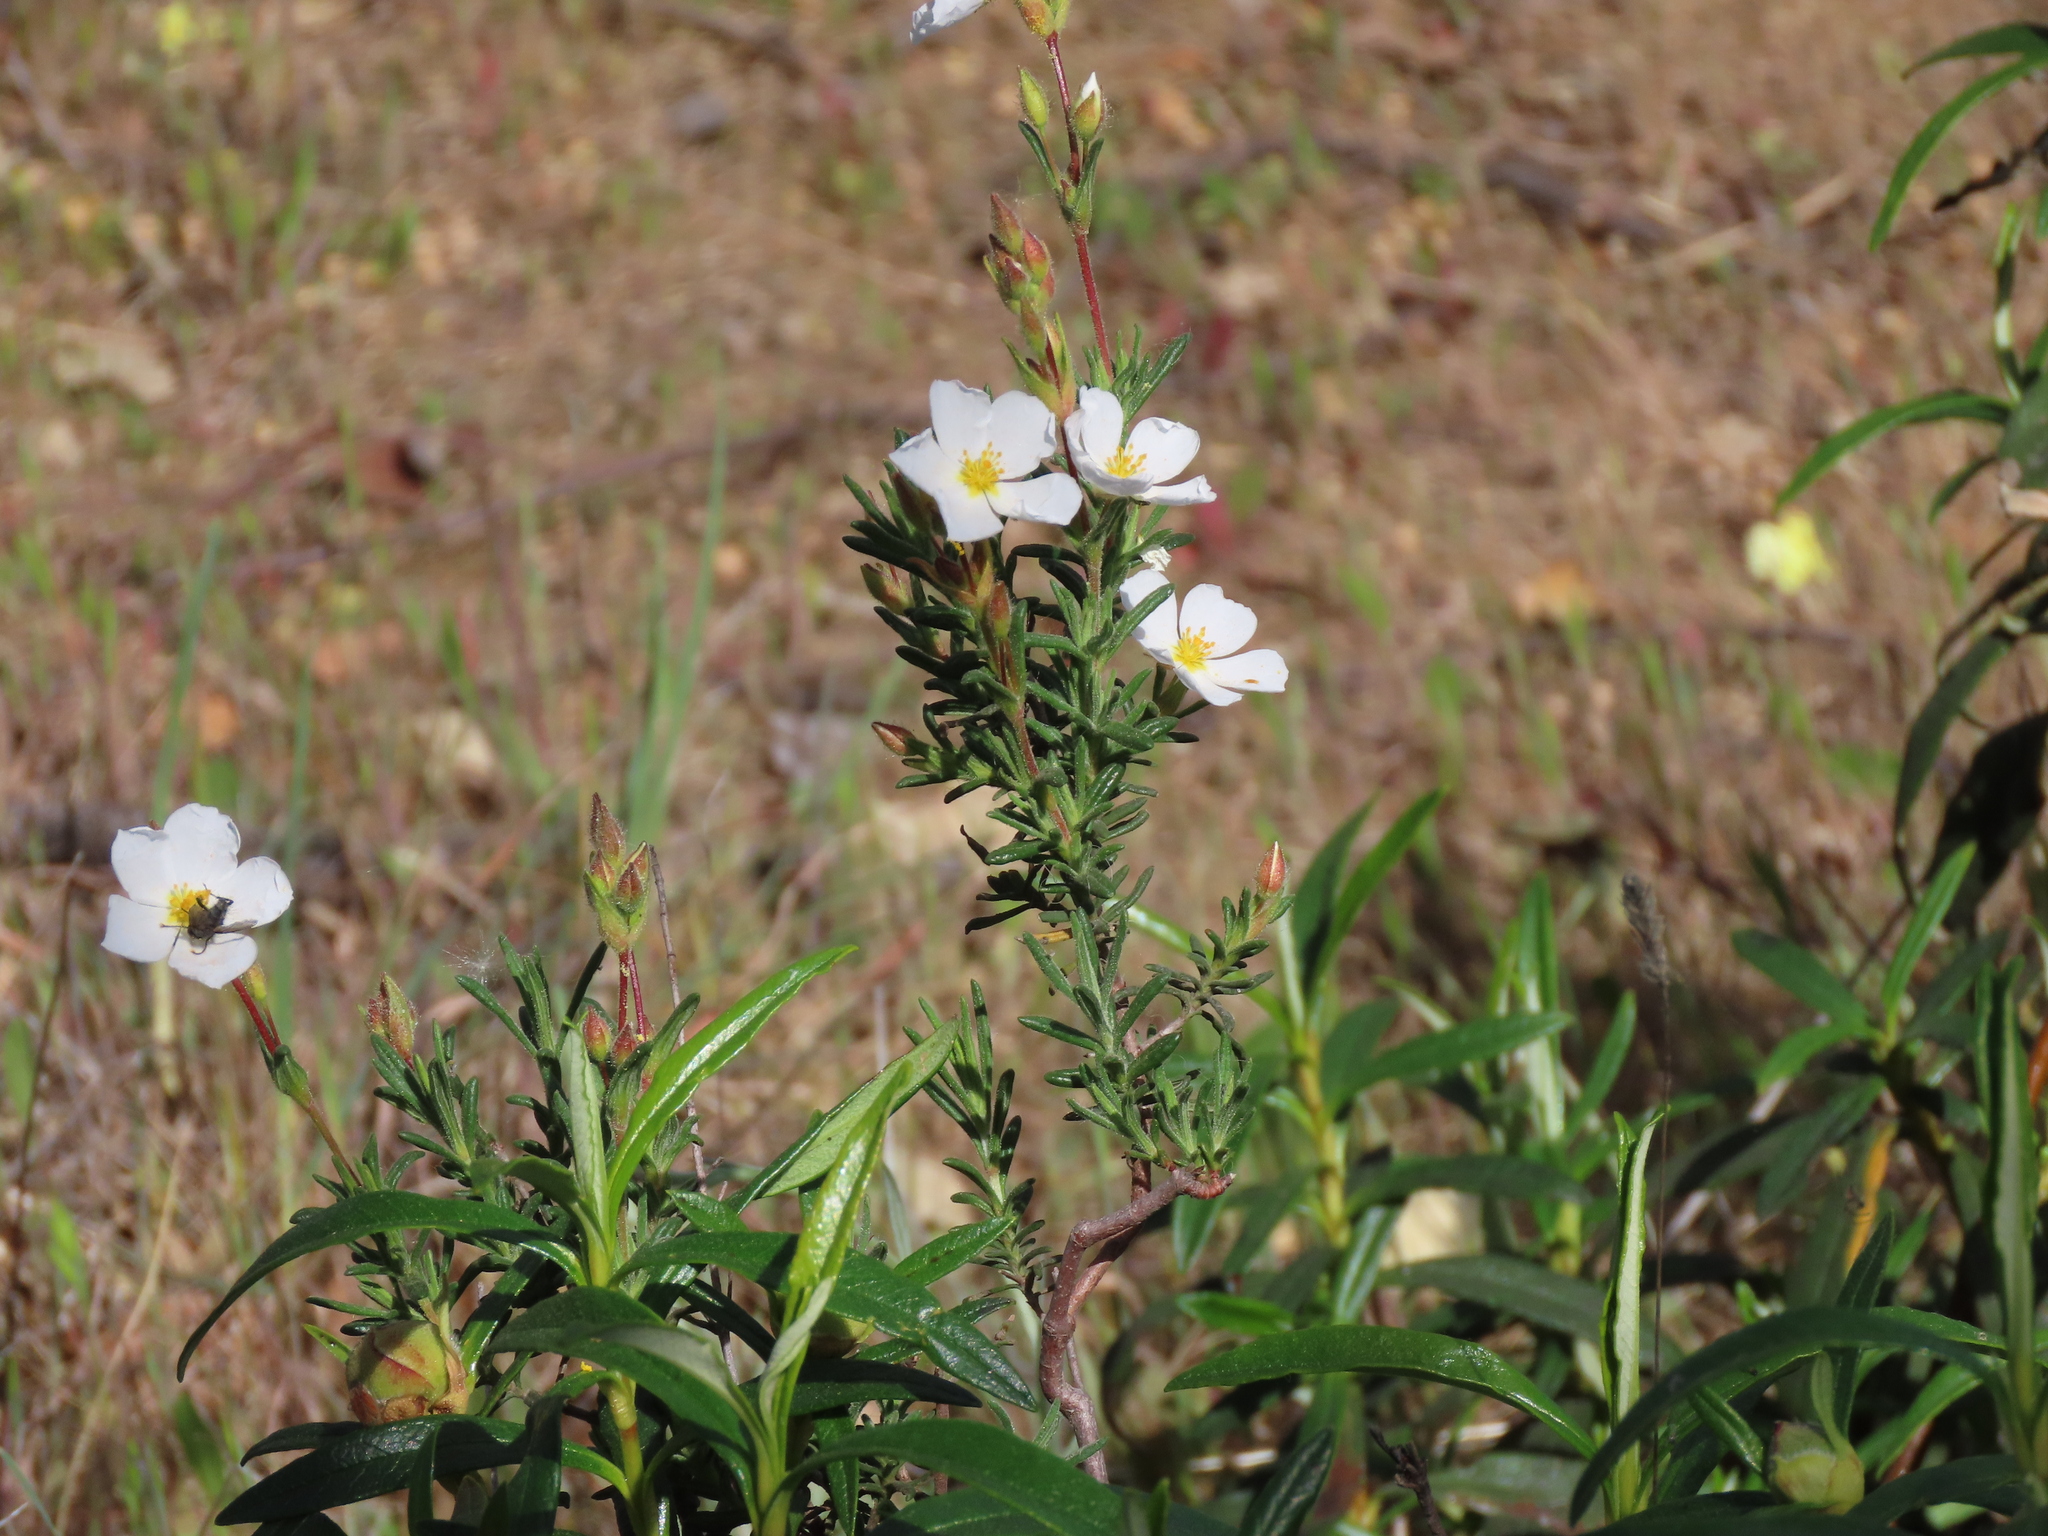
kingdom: Plantae
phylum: Tracheophyta
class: Magnoliopsida
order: Malvales
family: Cistaceae
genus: Halimium
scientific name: Halimium umbellatum
